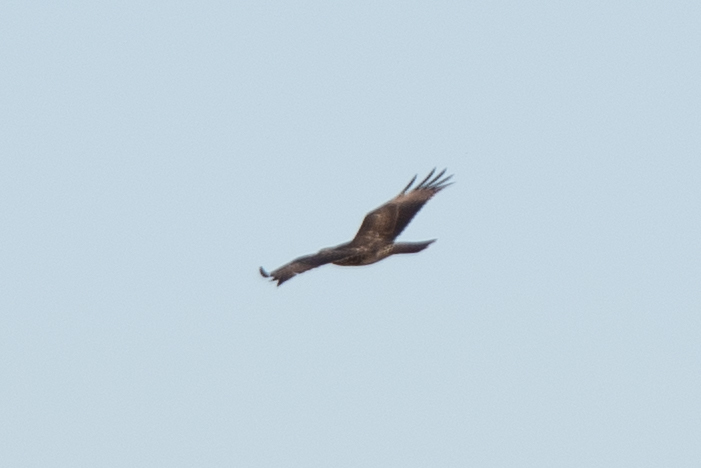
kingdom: Animalia
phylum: Chordata
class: Aves
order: Accipitriformes
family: Accipitridae
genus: Buteo
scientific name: Buteo jamaicensis
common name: Red-tailed hawk
